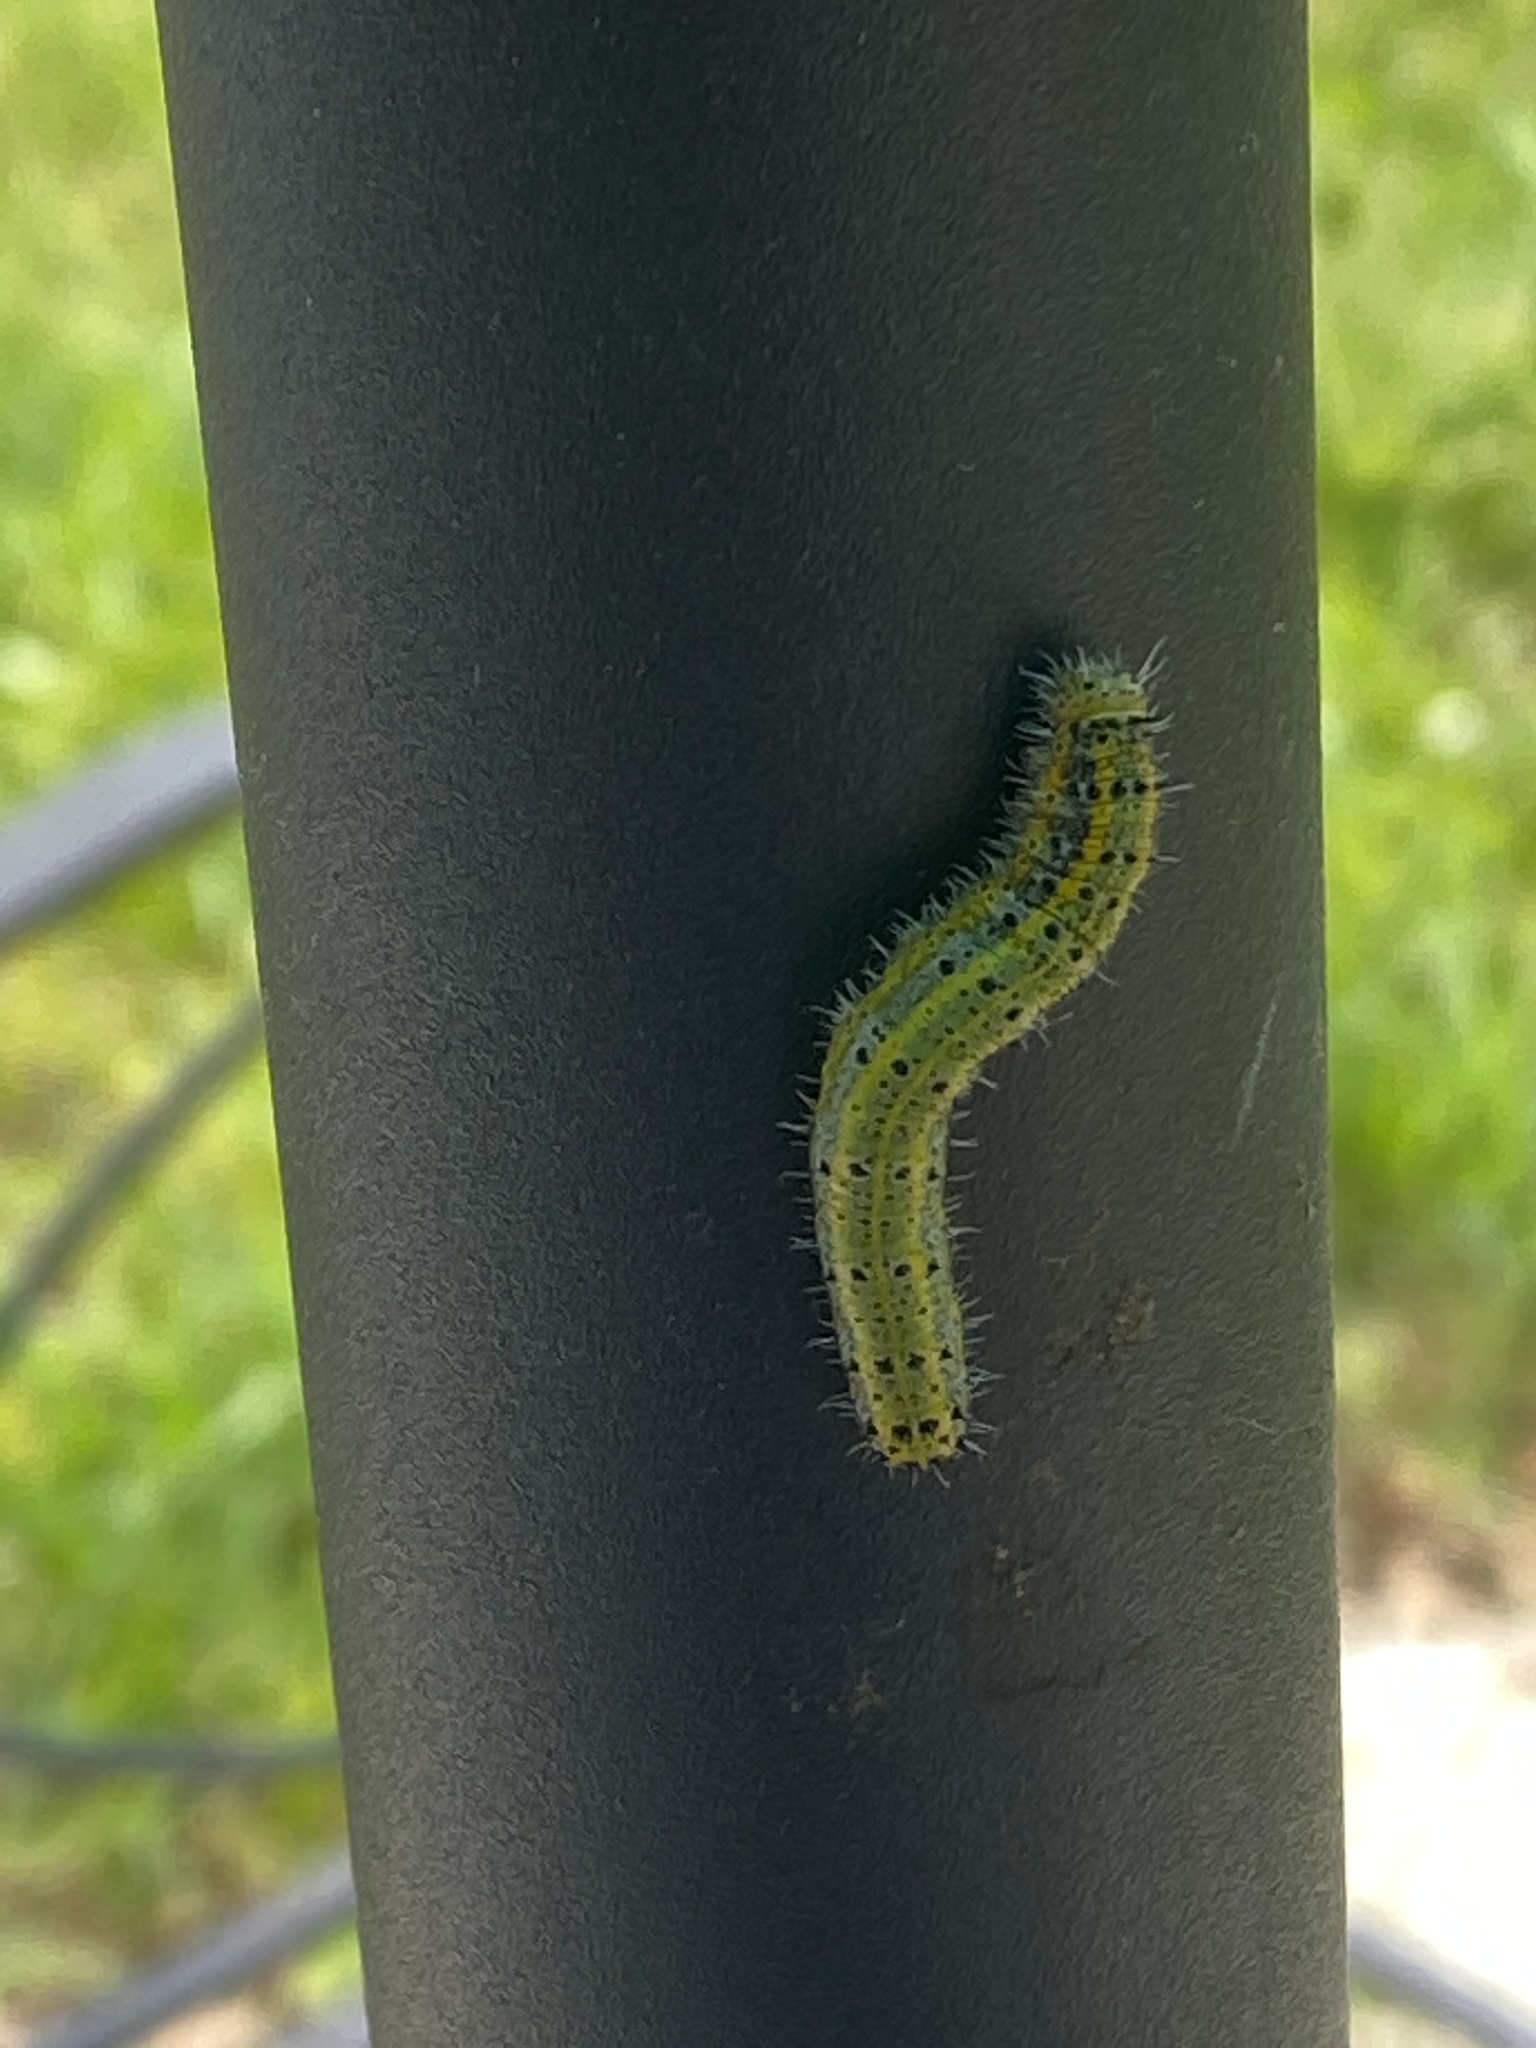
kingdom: Animalia
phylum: Arthropoda
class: Insecta
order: Lepidoptera
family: Pieridae
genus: Ascia
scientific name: Ascia monuste
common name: Great southern white
